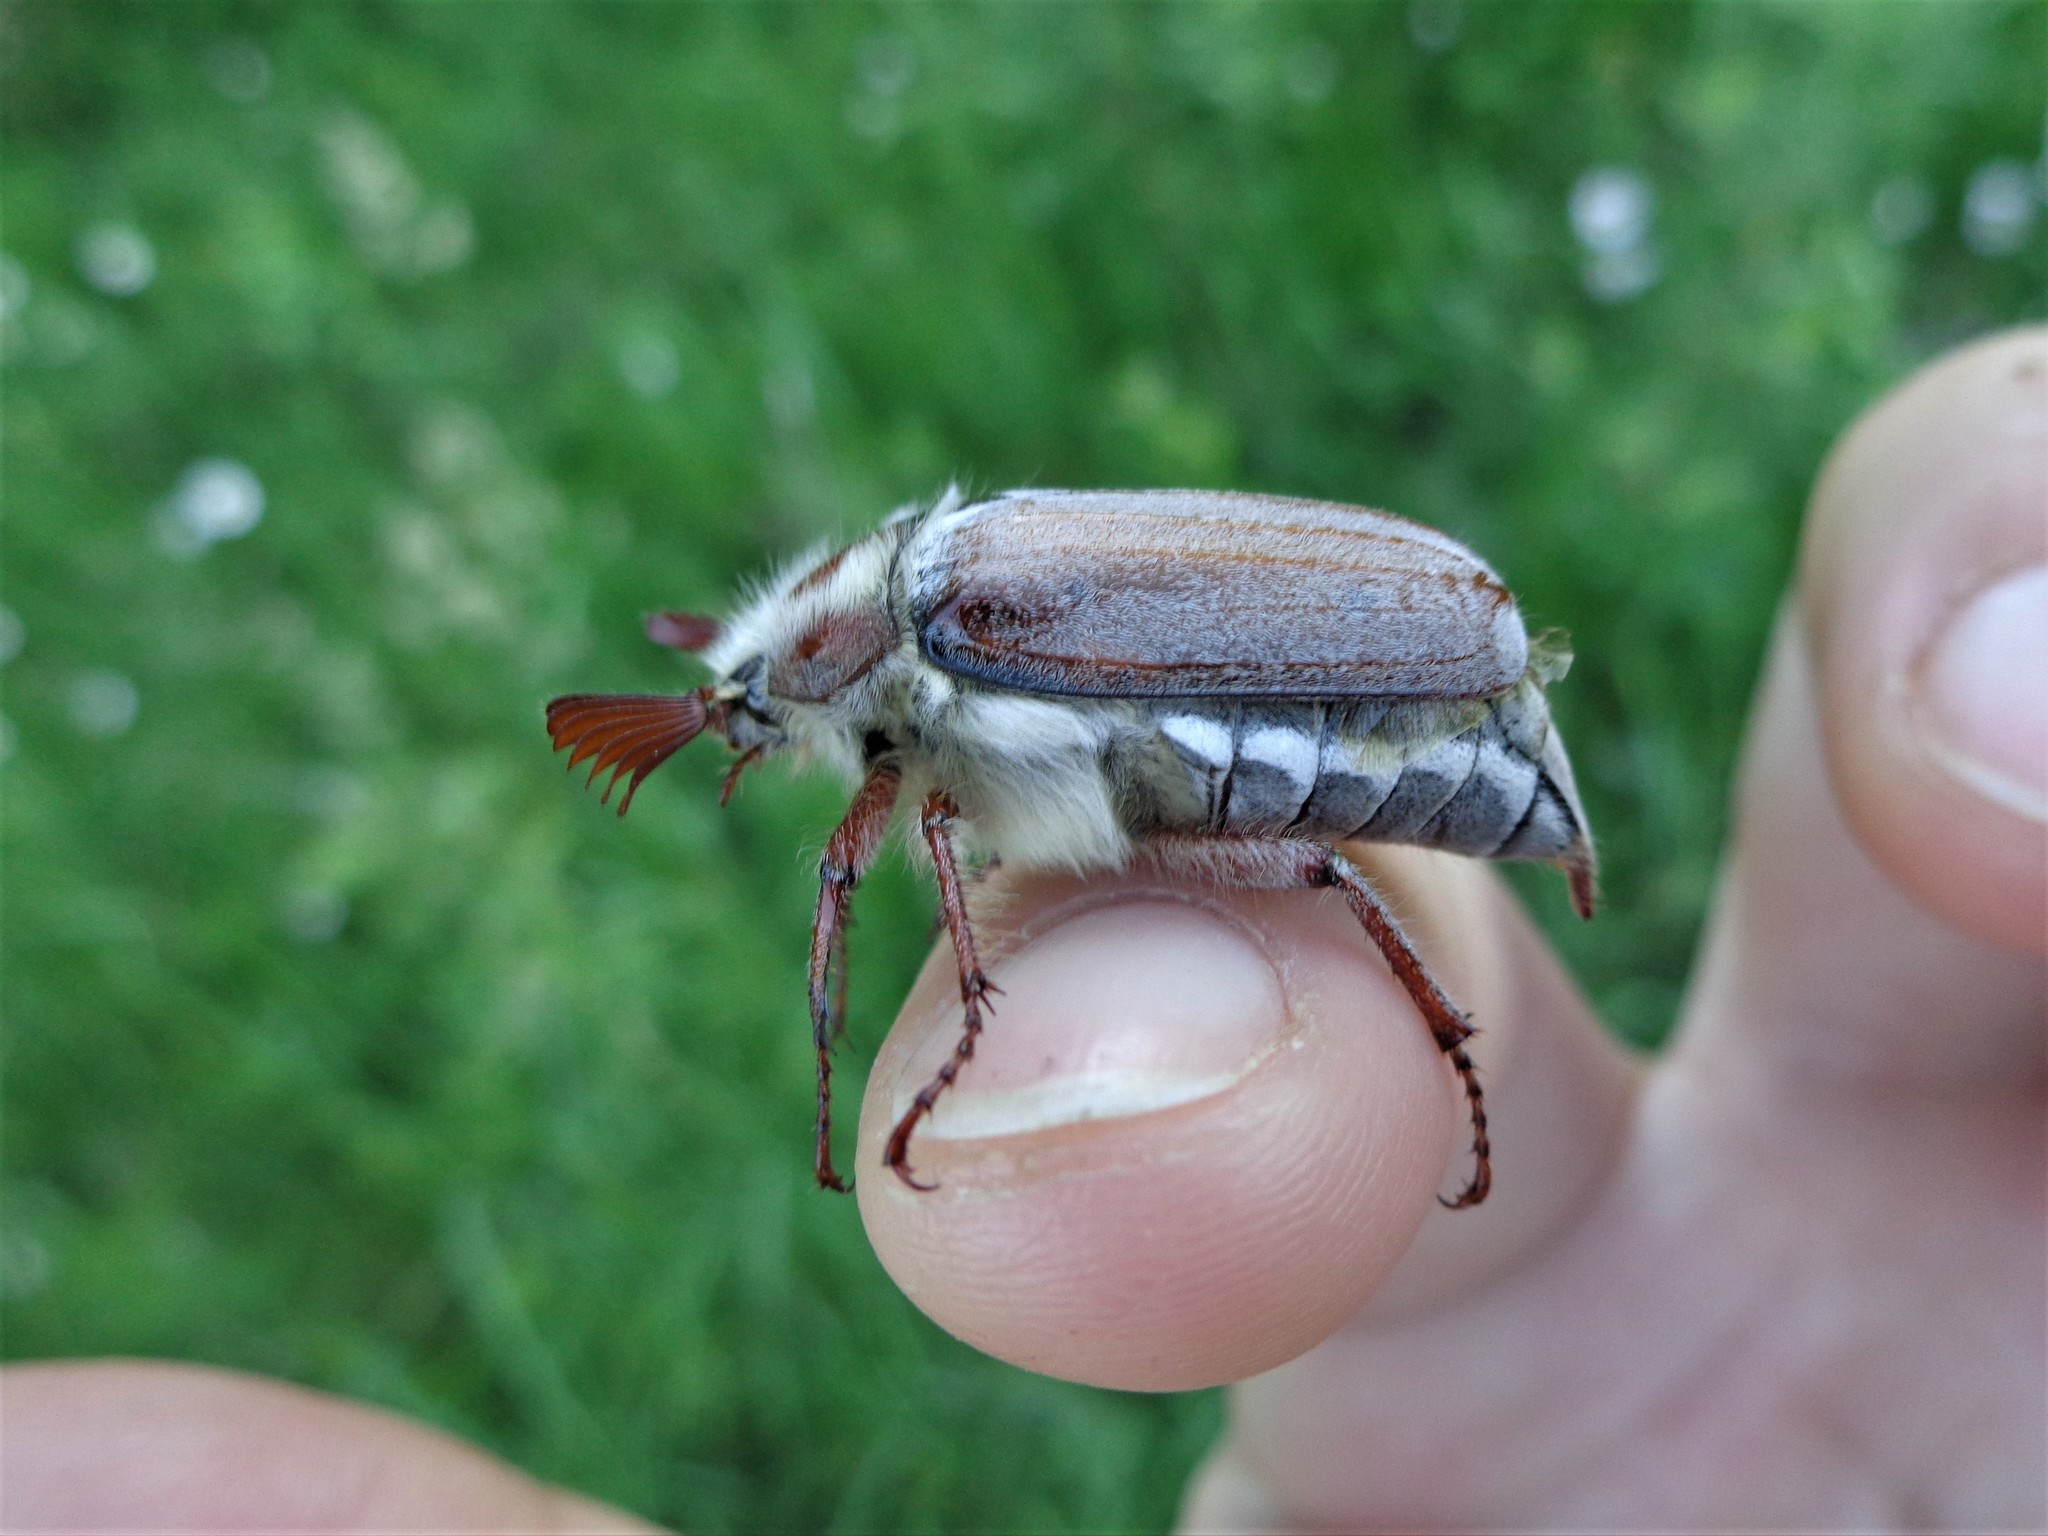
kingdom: Animalia
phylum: Arthropoda
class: Insecta
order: Coleoptera
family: Scarabaeidae
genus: Melolontha
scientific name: Melolontha hippocastani
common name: Chestnut cockchafer
